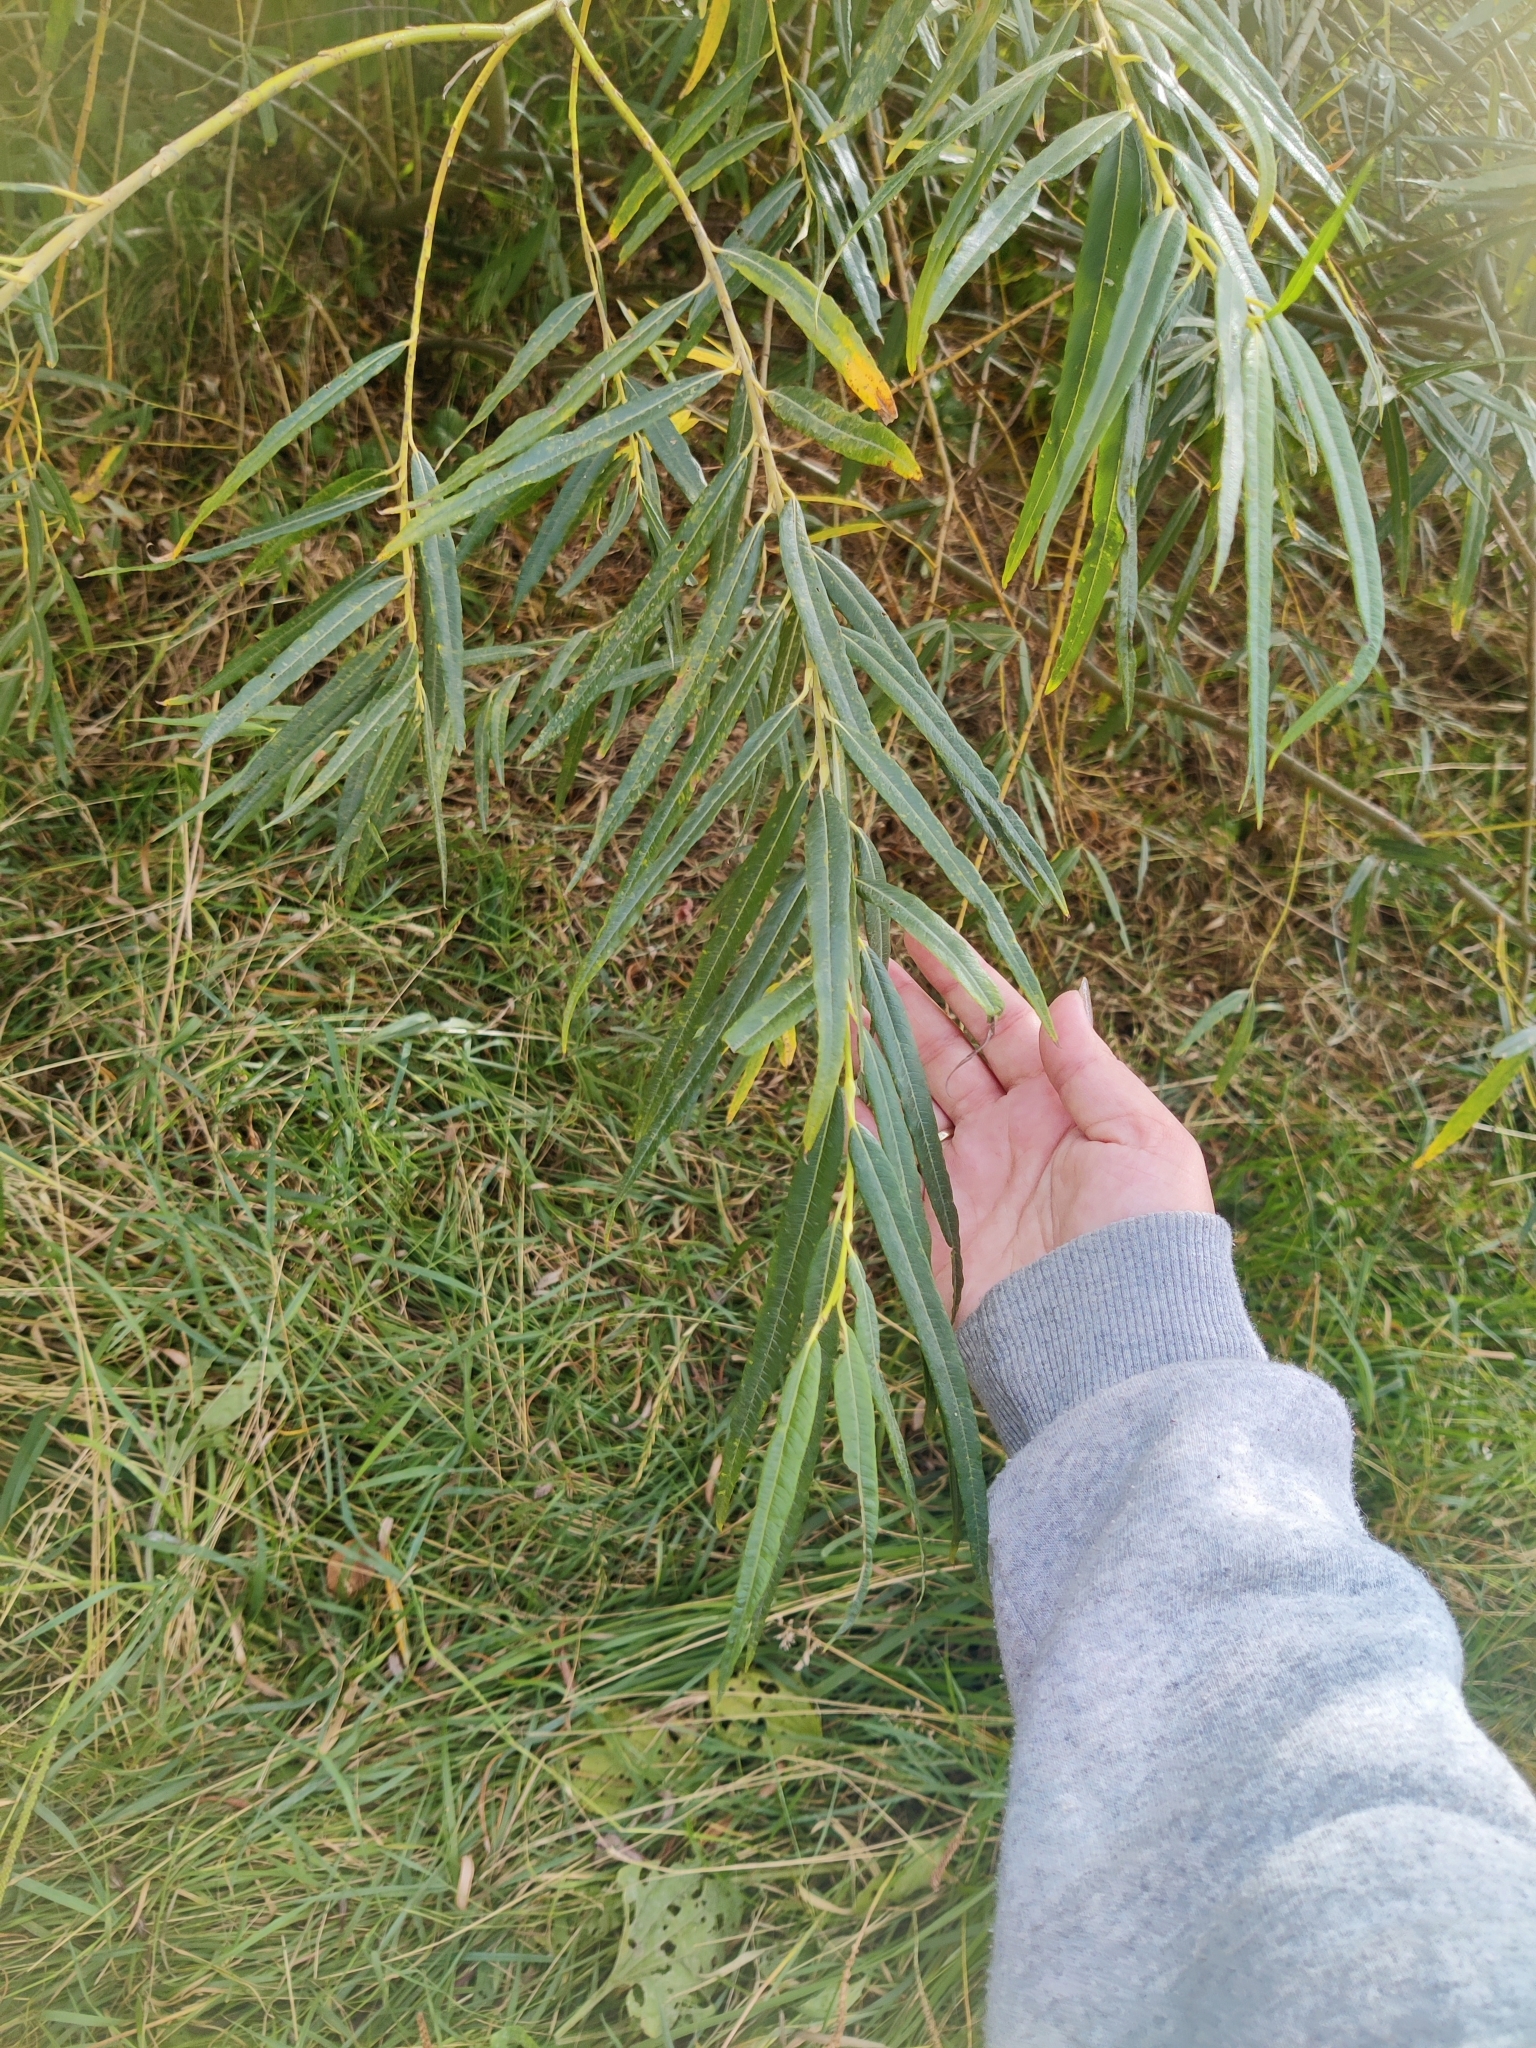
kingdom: Plantae
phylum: Tracheophyta
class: Magnoliopsida
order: Malpighiales
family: Salicaceae
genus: Salix
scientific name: Salix viminalis
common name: Osier
